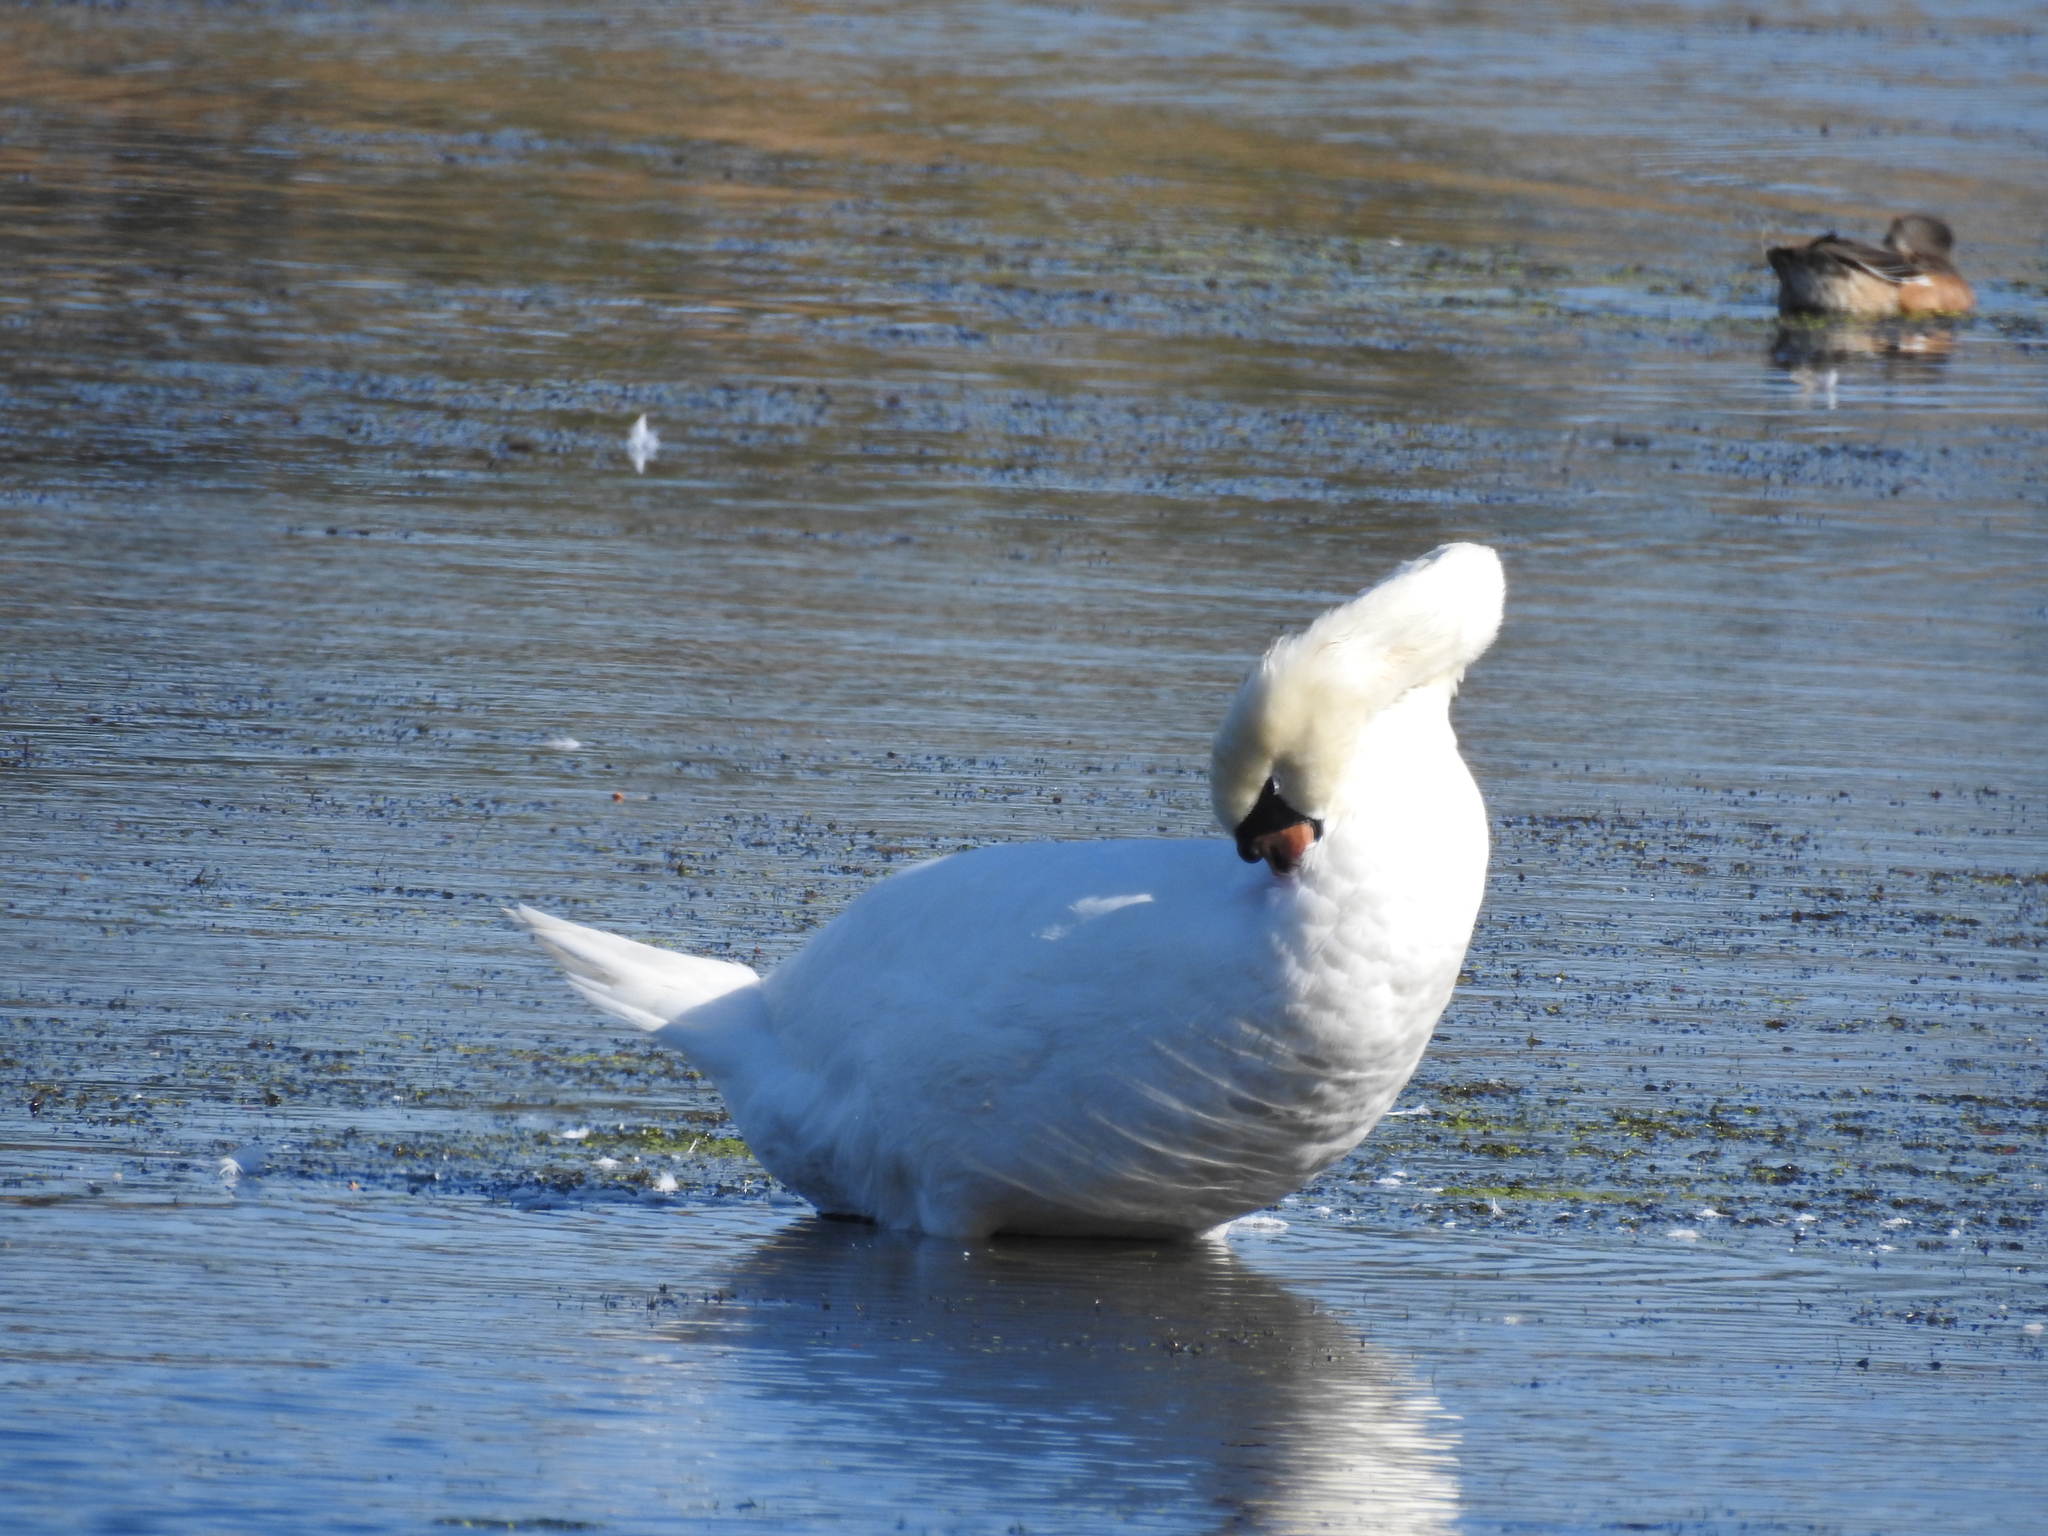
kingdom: Animalia
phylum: Chordata
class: Aves
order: Anseriformes
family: Anatidae
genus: Cygnus
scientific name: Cygnus olor
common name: Mute swan
